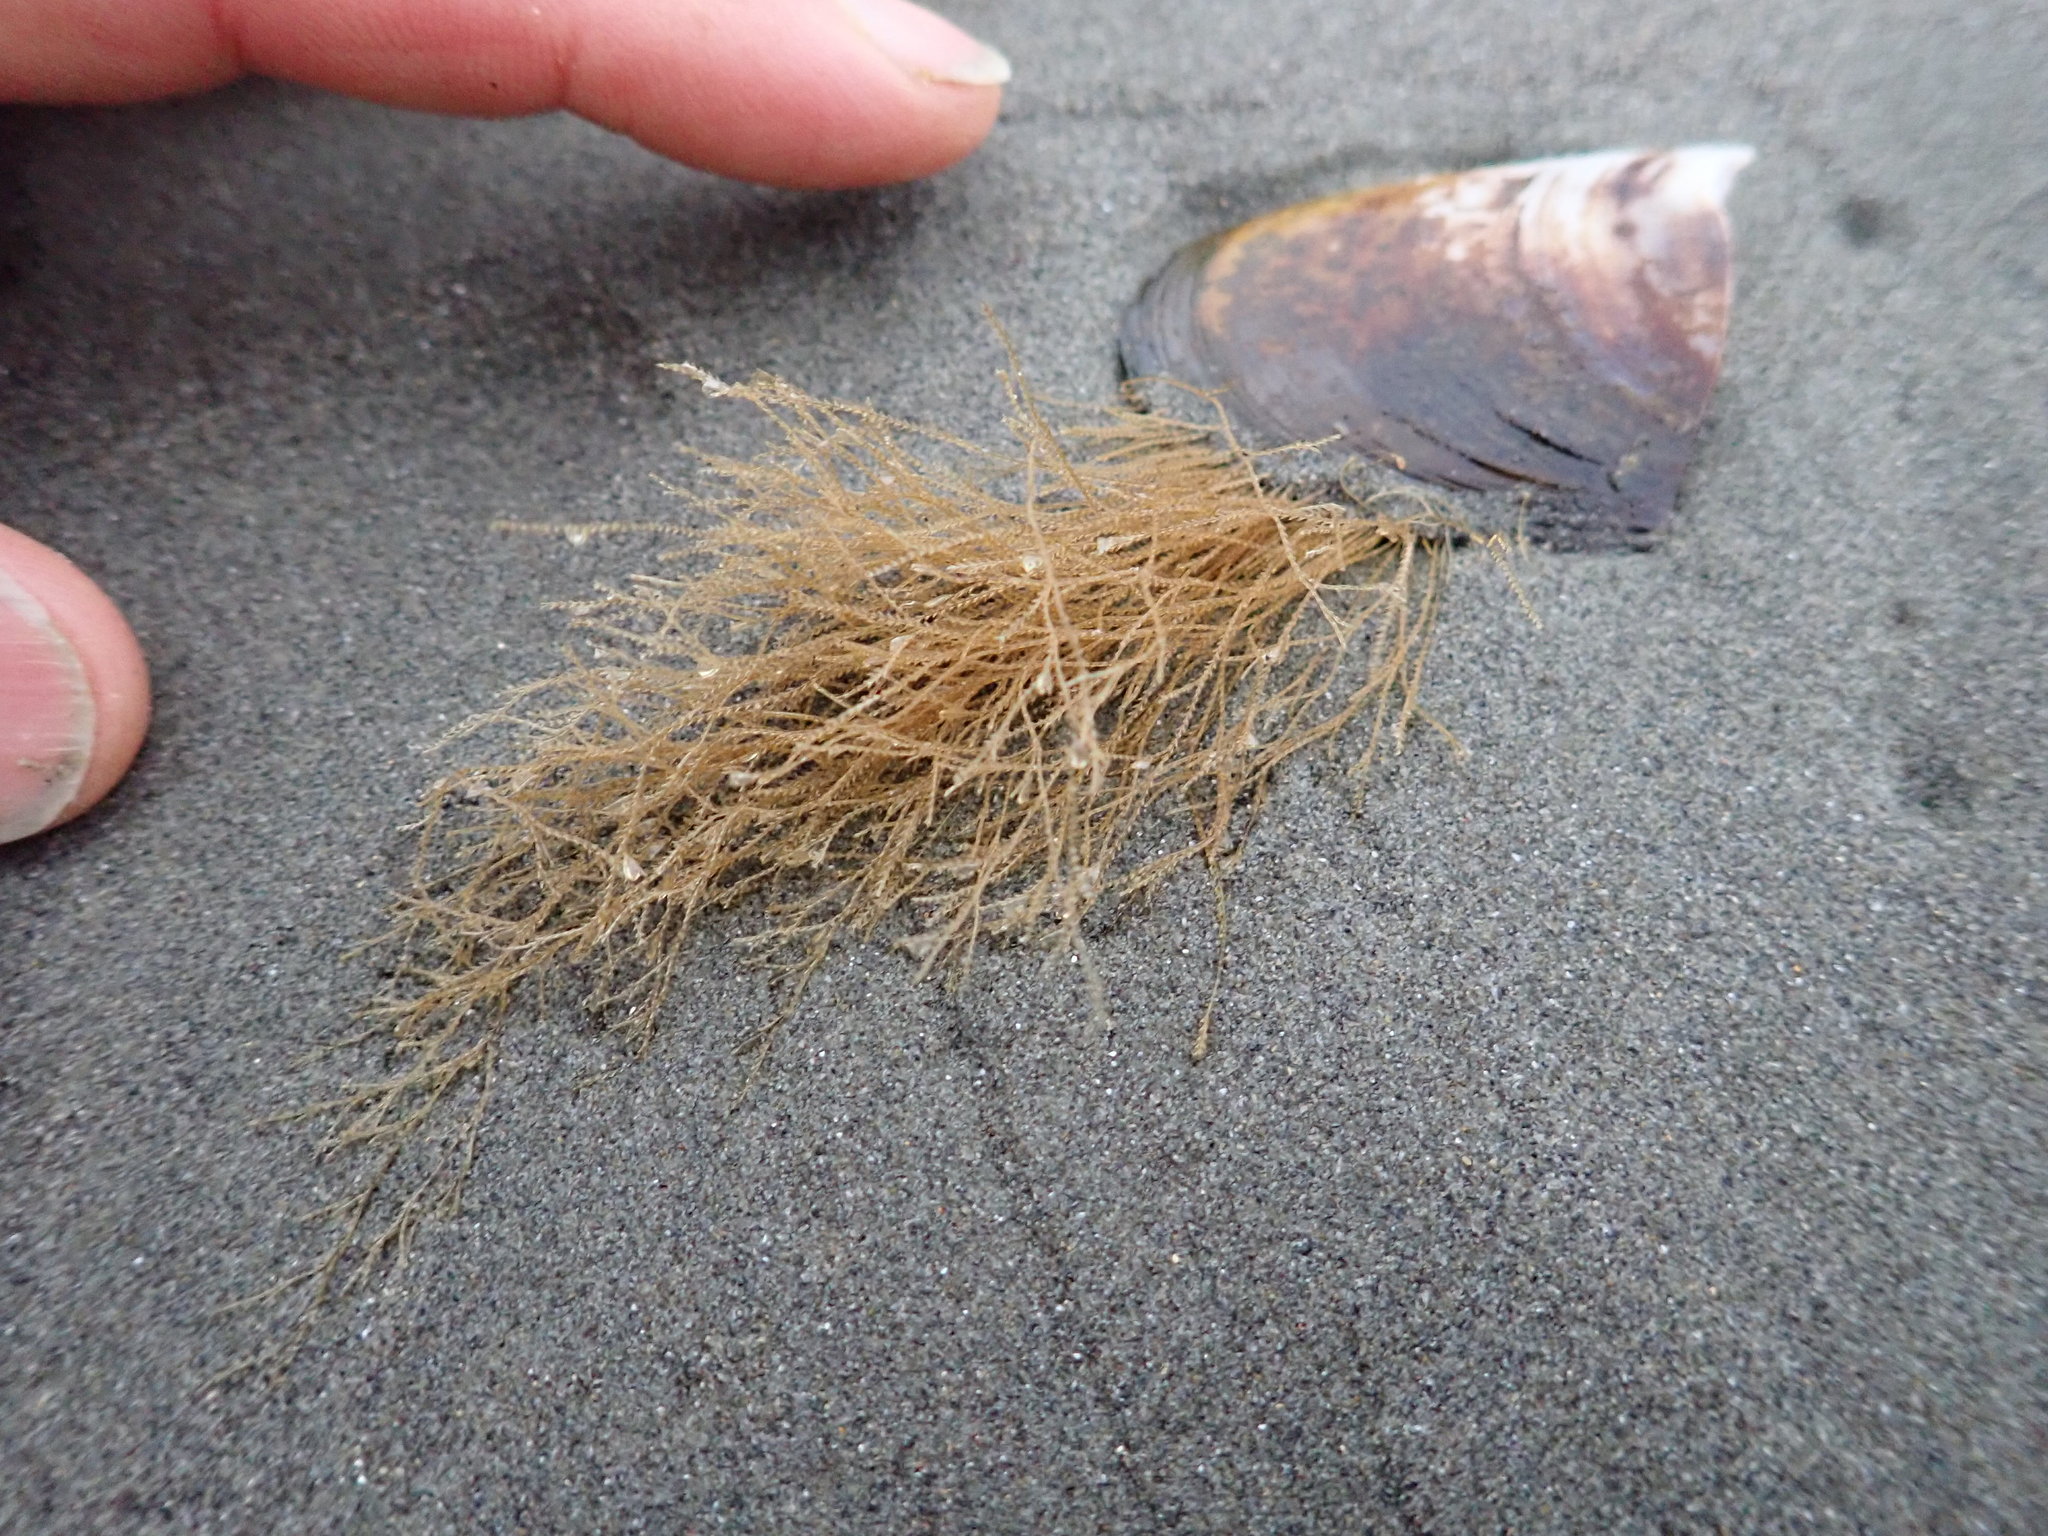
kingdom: Animalia
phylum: Cnidaria
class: Hydrozoa
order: Leptothecata
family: Sertulariidae
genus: Amphisbetia
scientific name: Amphisbetia bispinosa
